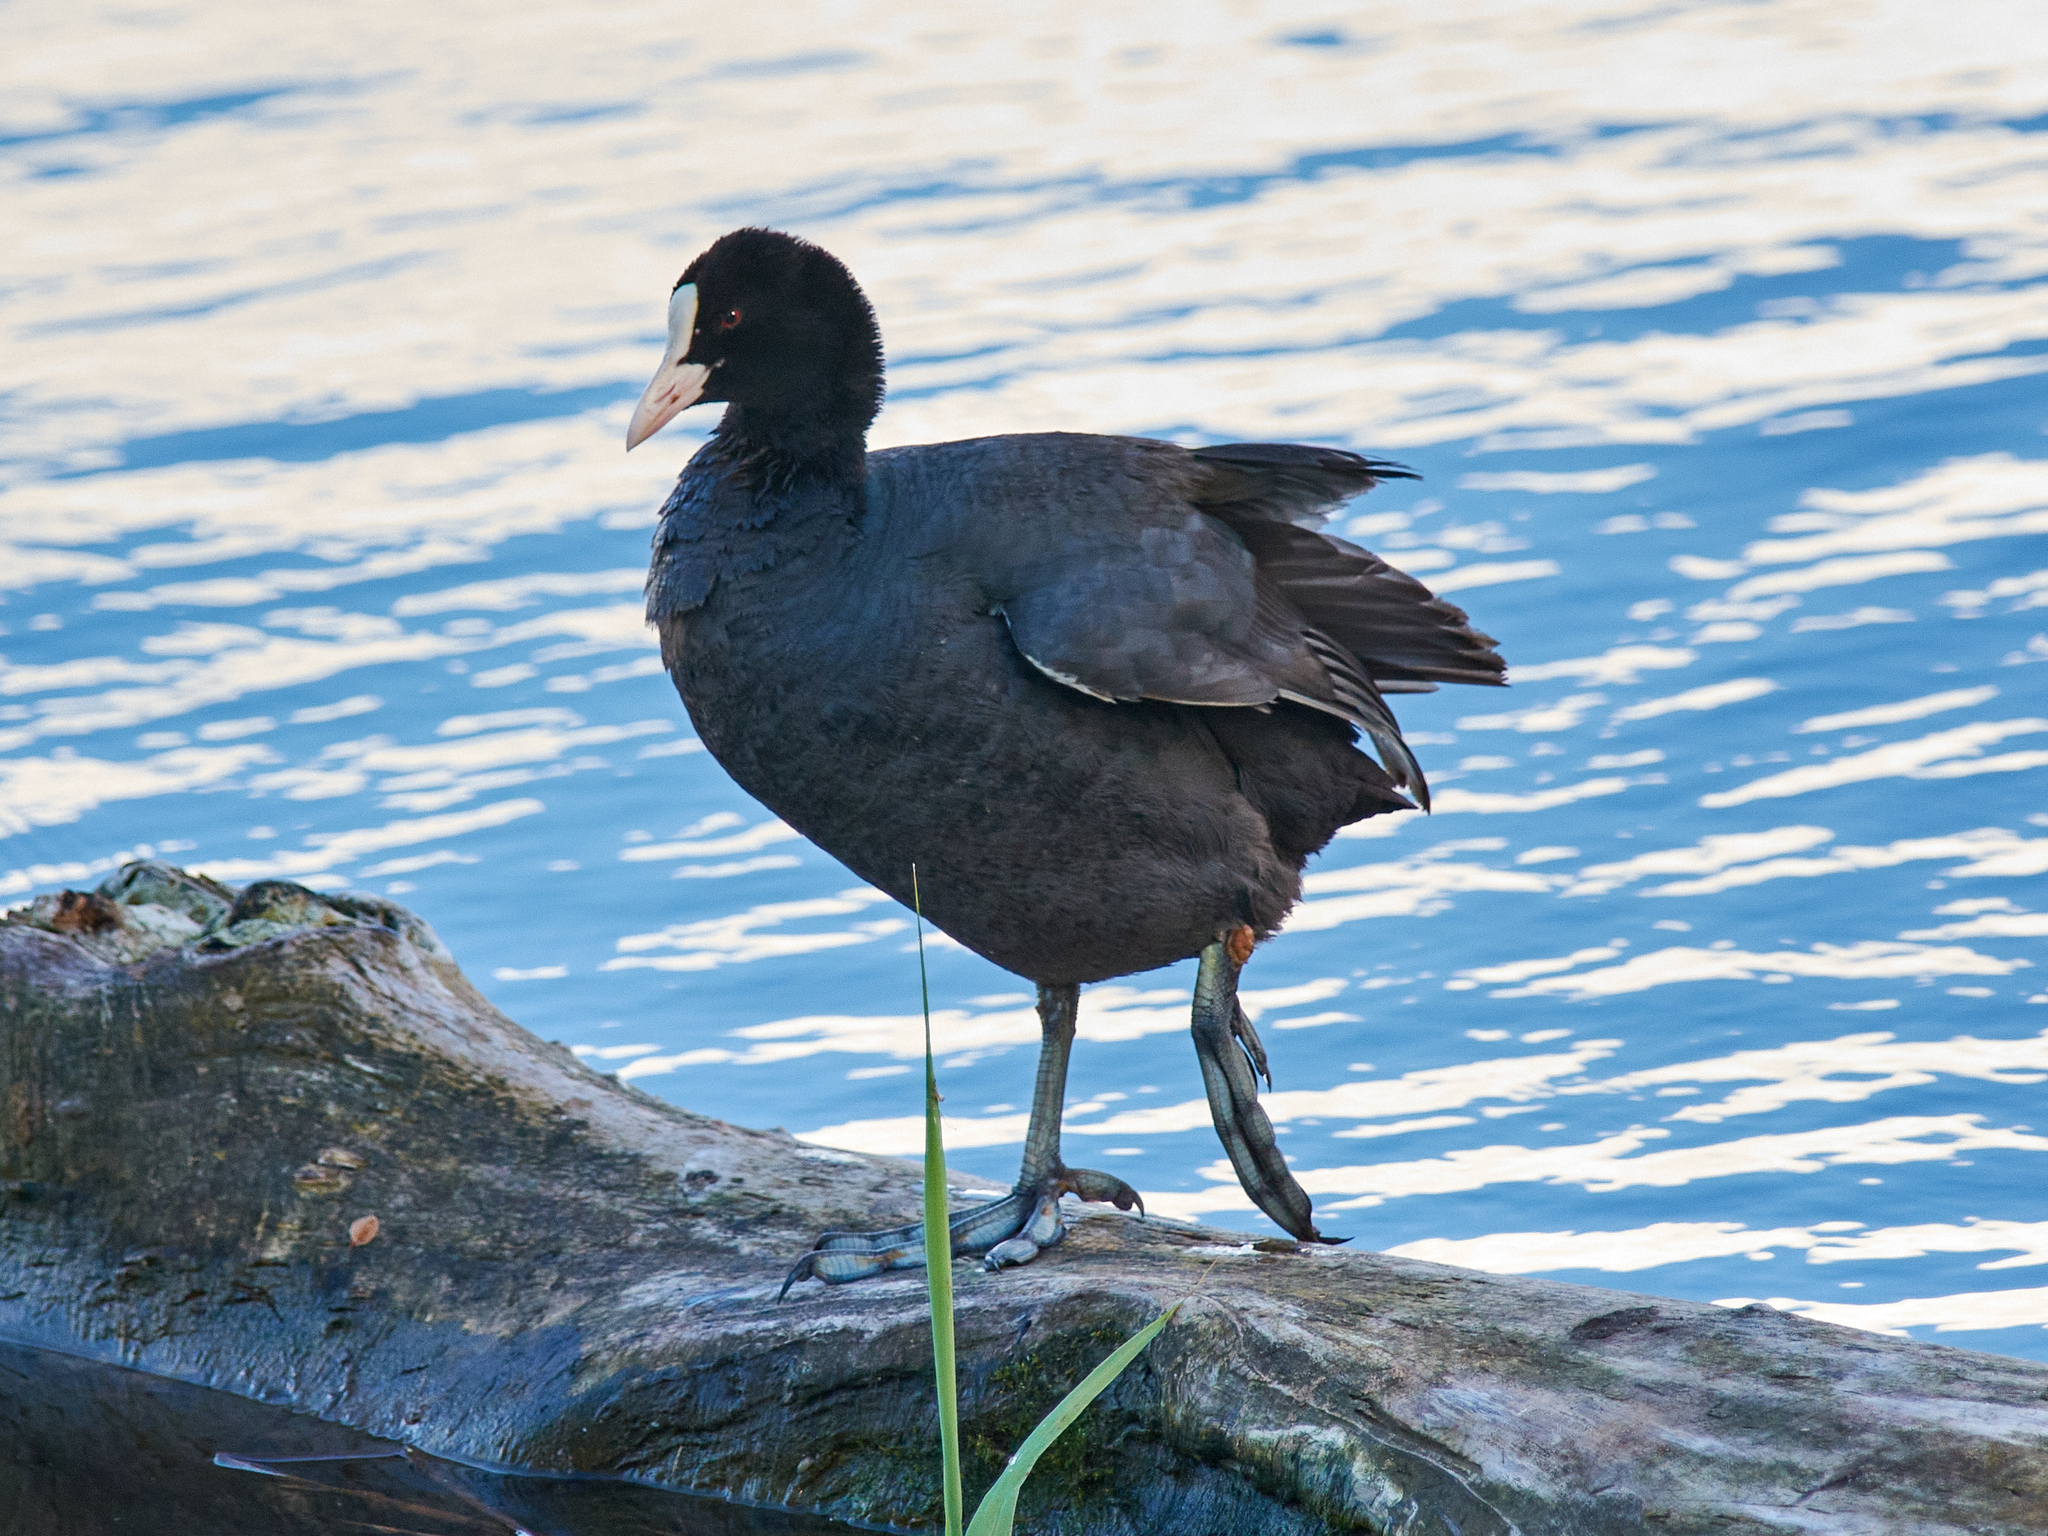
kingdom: Animalia
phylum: Chordata
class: Aves
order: Gruiformes
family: Rallidae
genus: Fulica
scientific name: Fulica atra
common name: Eurasian coot
